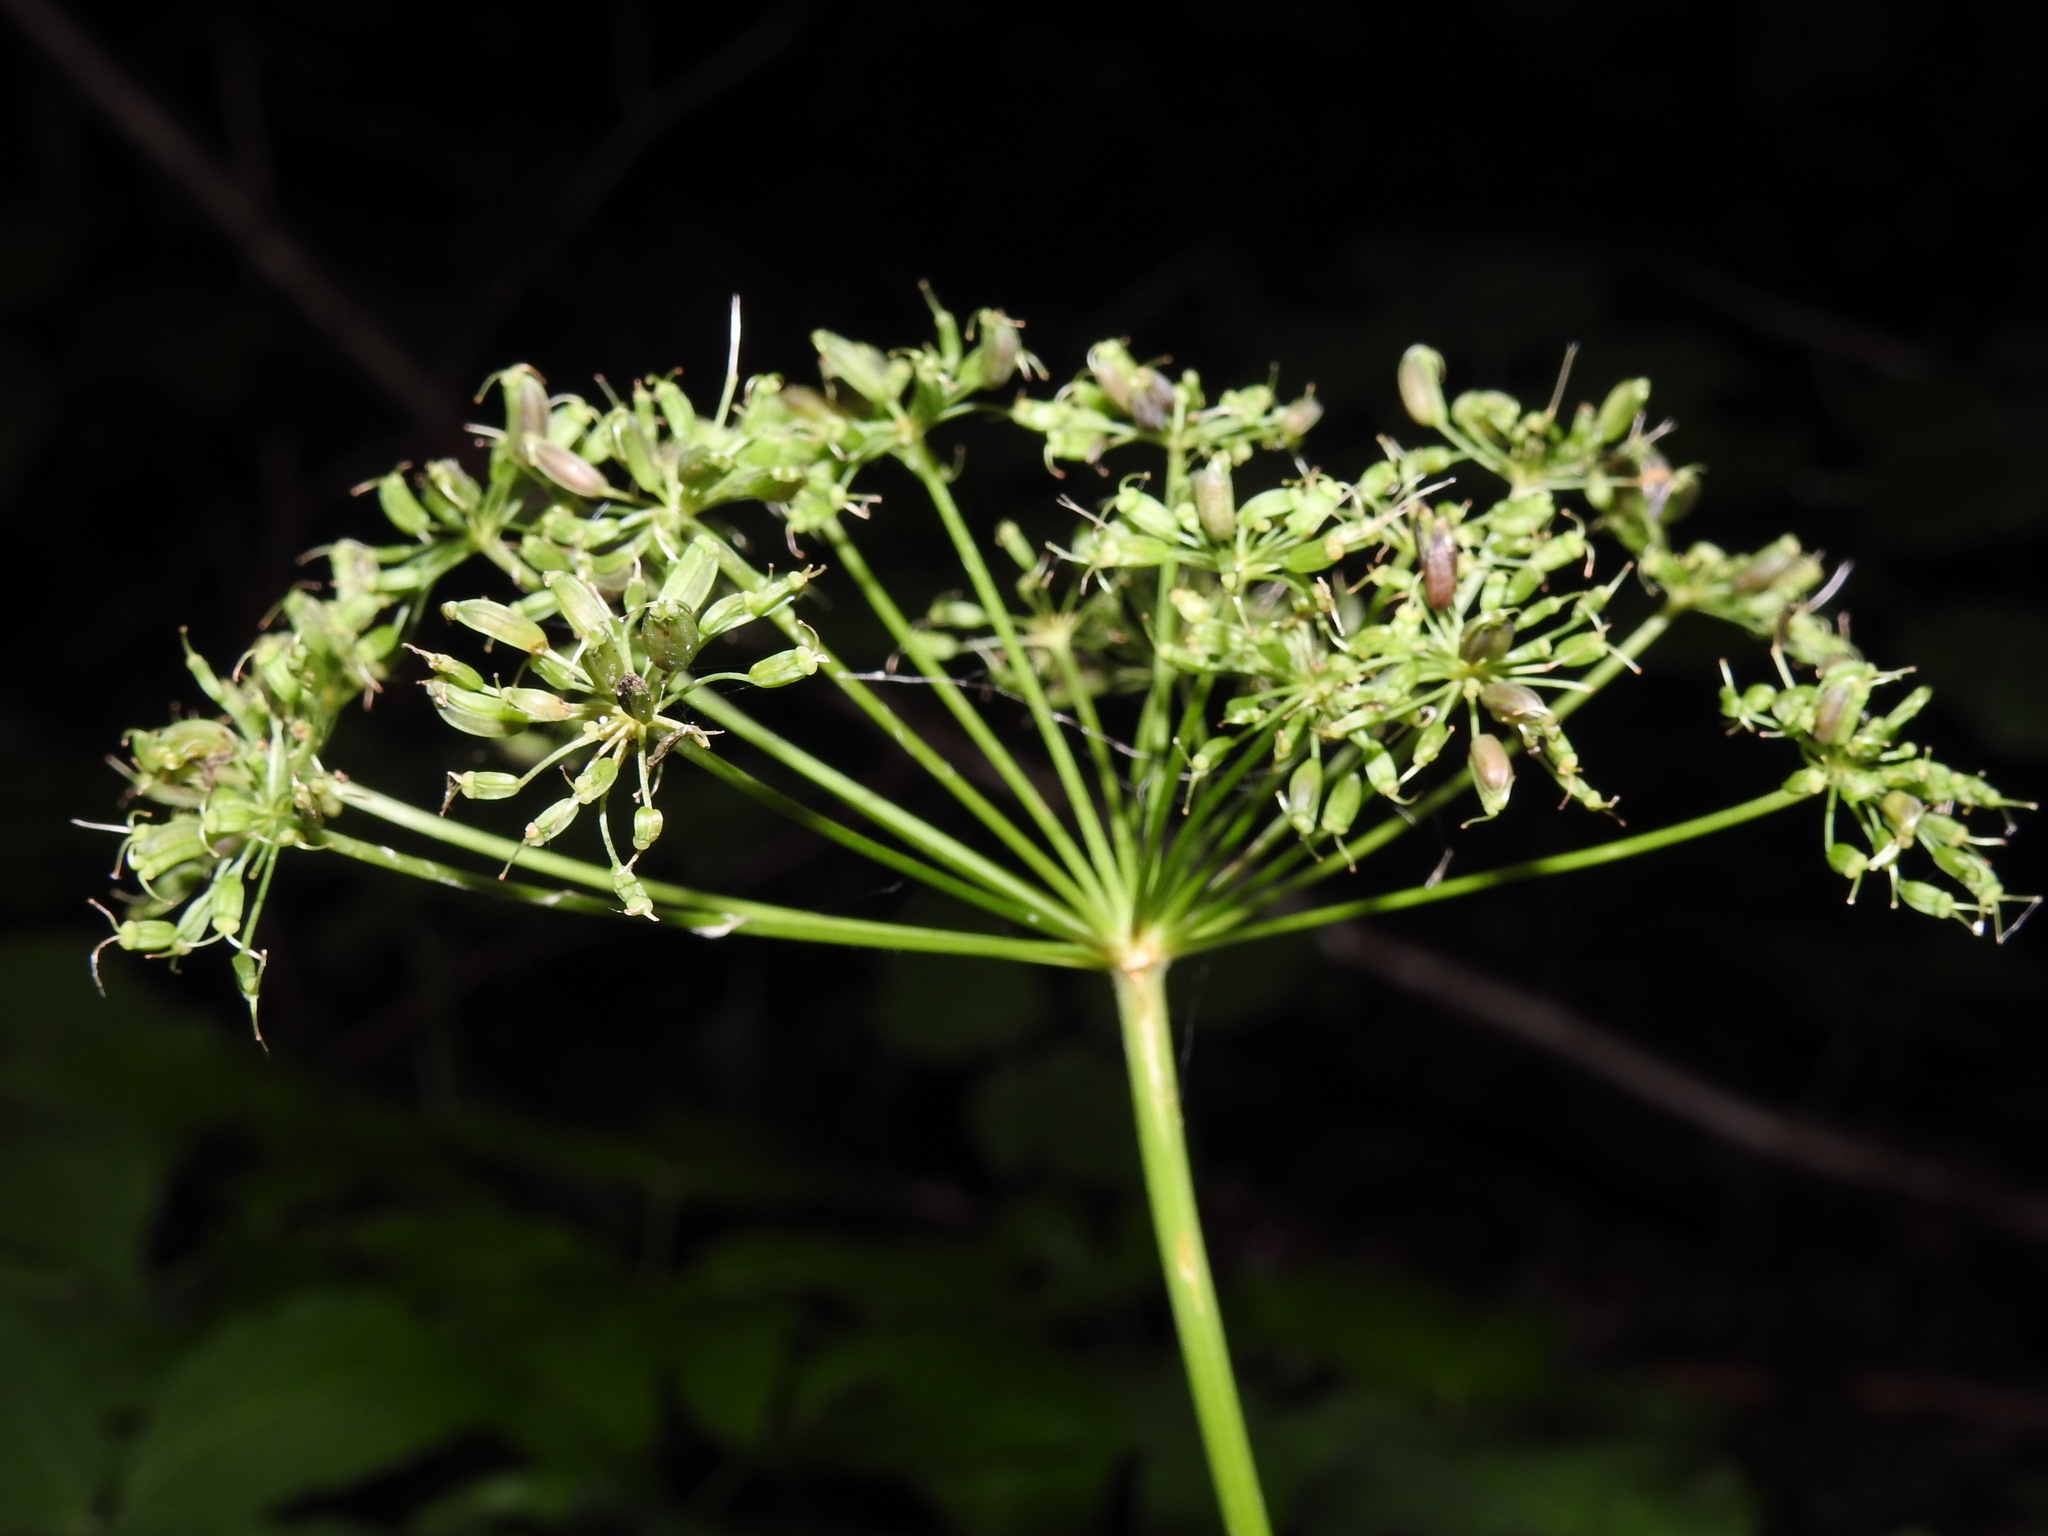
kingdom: Plantae
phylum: Tracheophyta
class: Magnoliopsida
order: Apiales
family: Apiaceae
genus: Aegopodium
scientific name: Aegopodium podagraria
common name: Ground-elder
